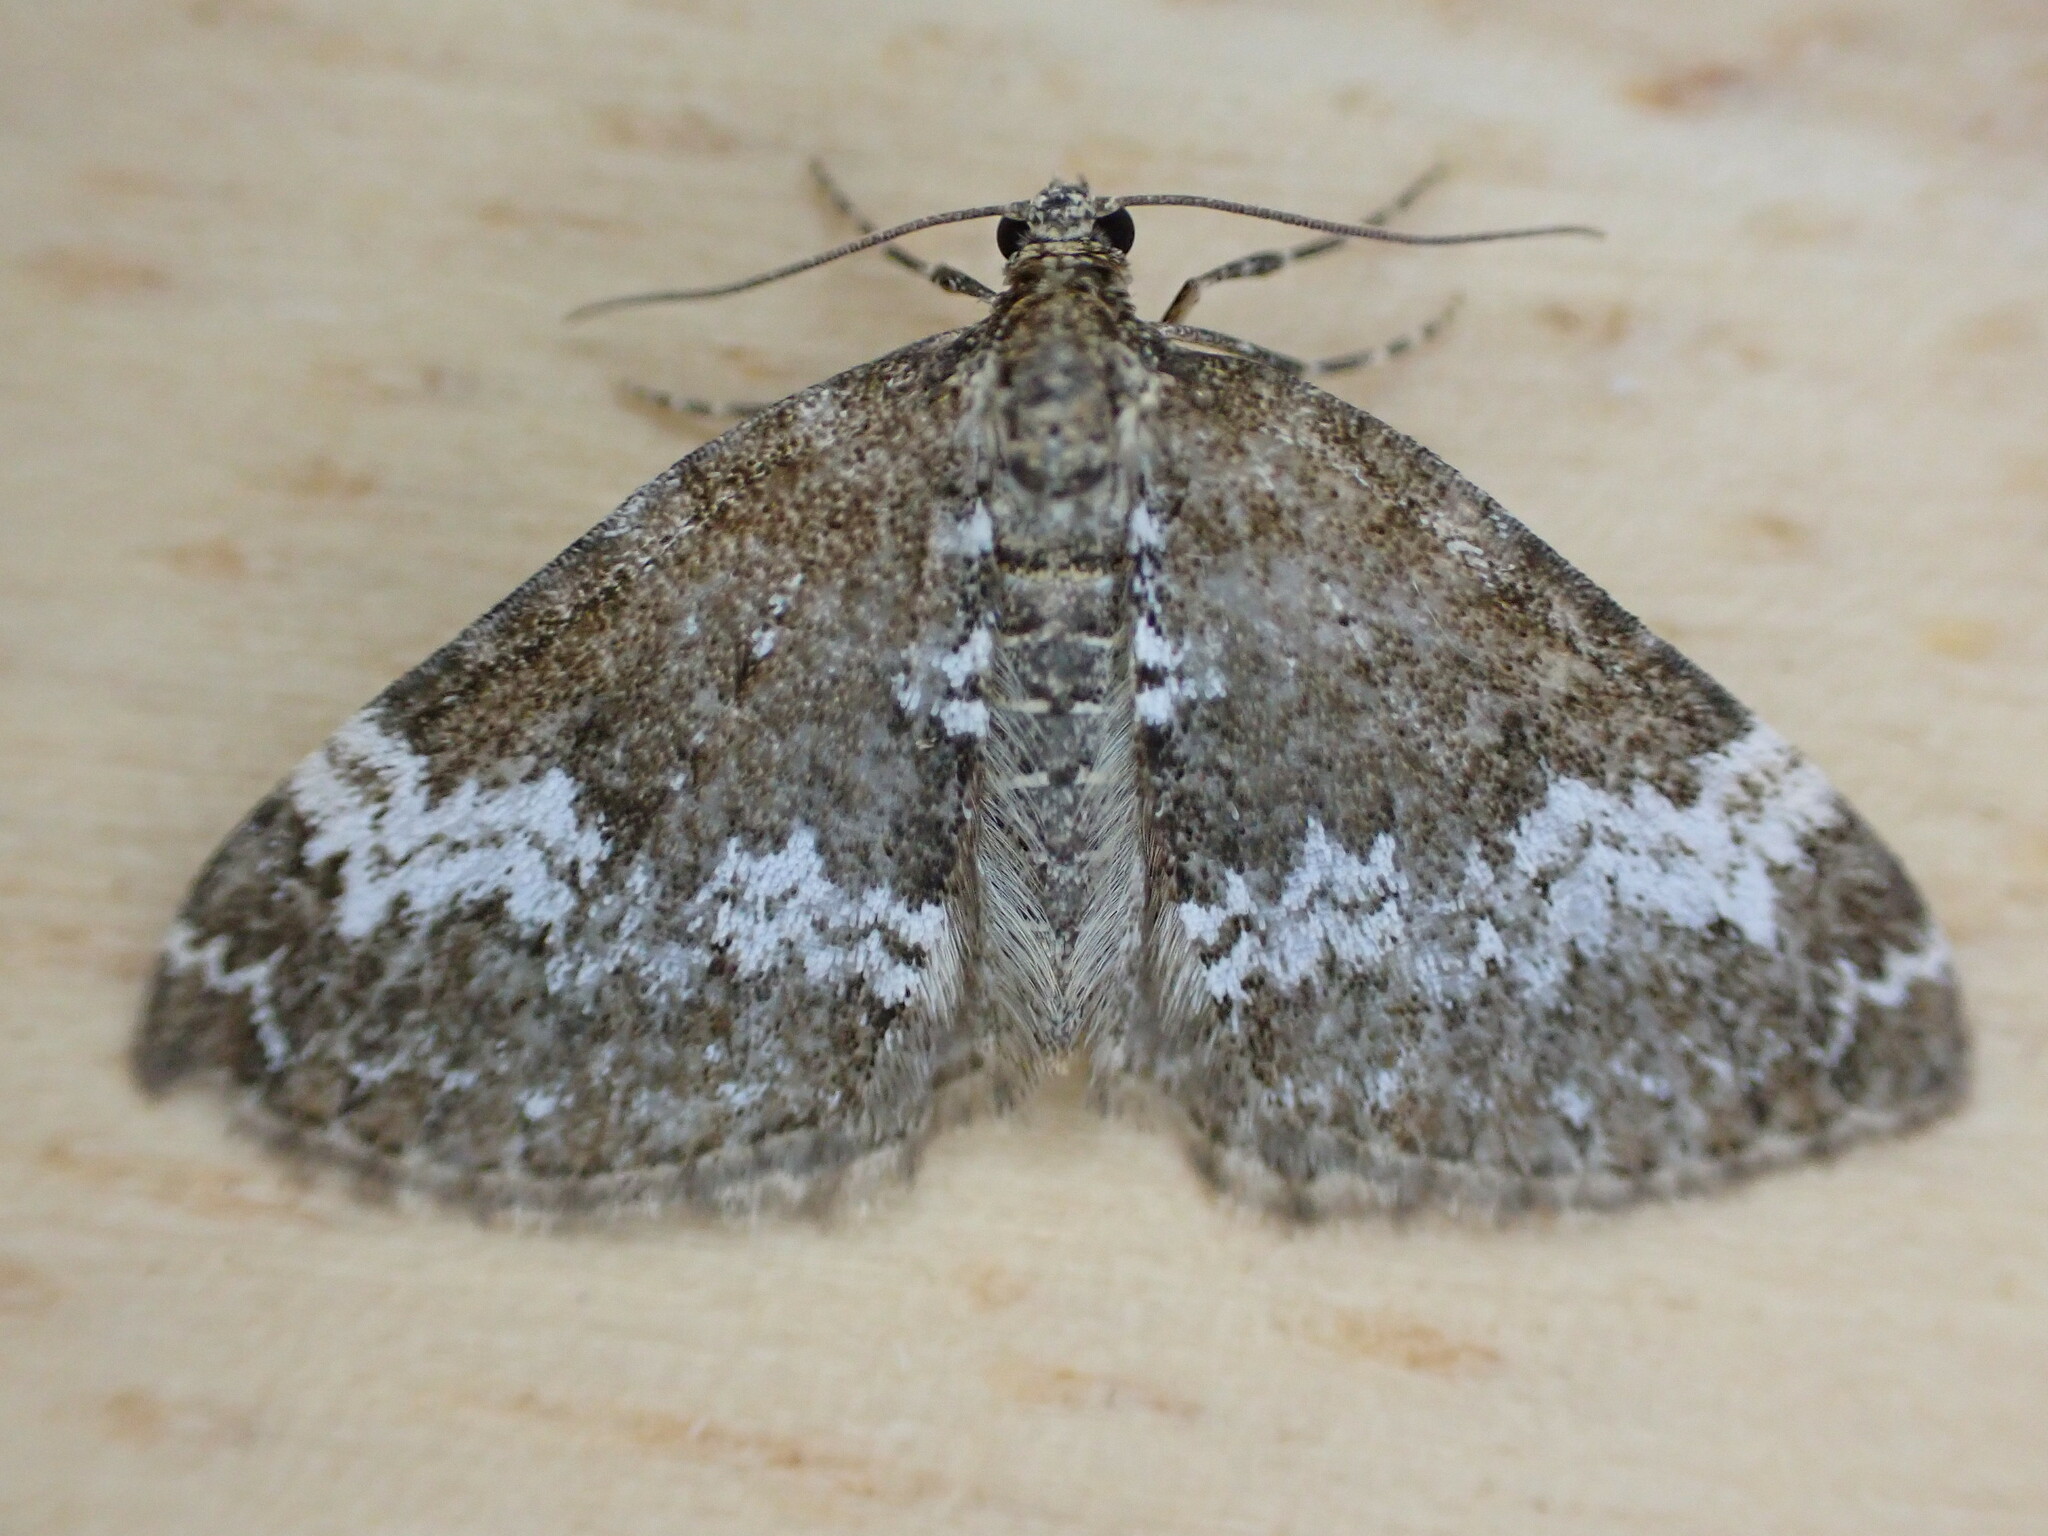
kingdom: Animalia
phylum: Arthropoda
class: Insecta
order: Lepidoptera
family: Geometridae
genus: Perizoma
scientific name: Perizoma alchemillata
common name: Small rivulet
